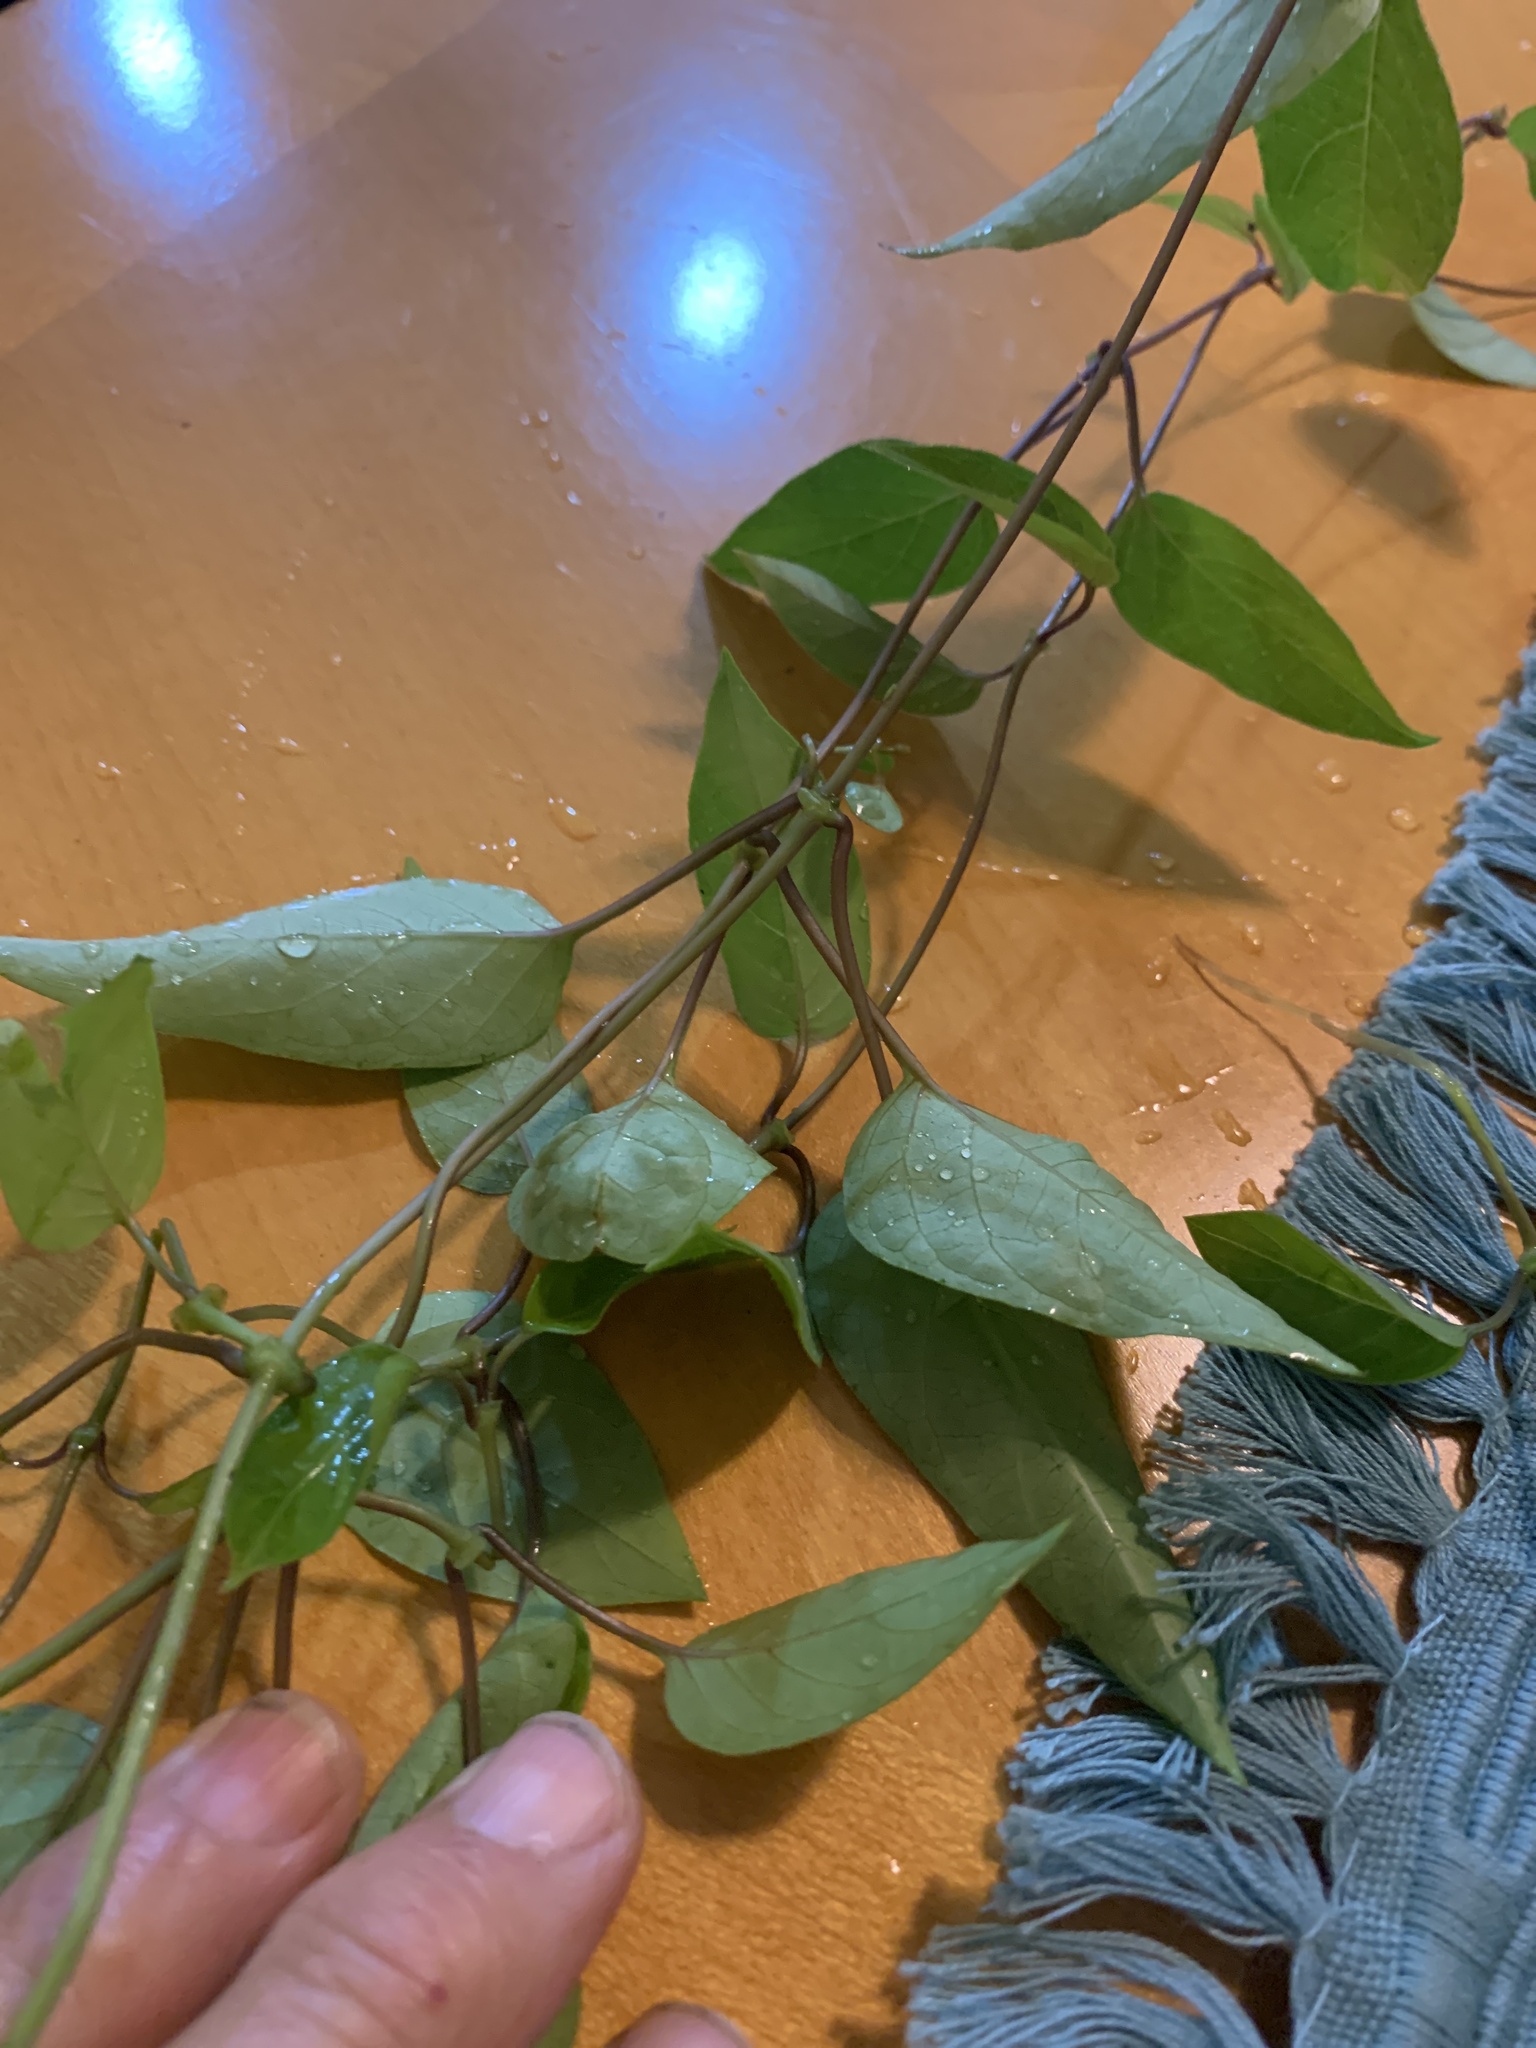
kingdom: Plantae
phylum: Tracheophyta
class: Magnoliopsida
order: Gentianales
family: Rubiaceae
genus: Paederia
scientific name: Paederia foetida
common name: Stinkvine
